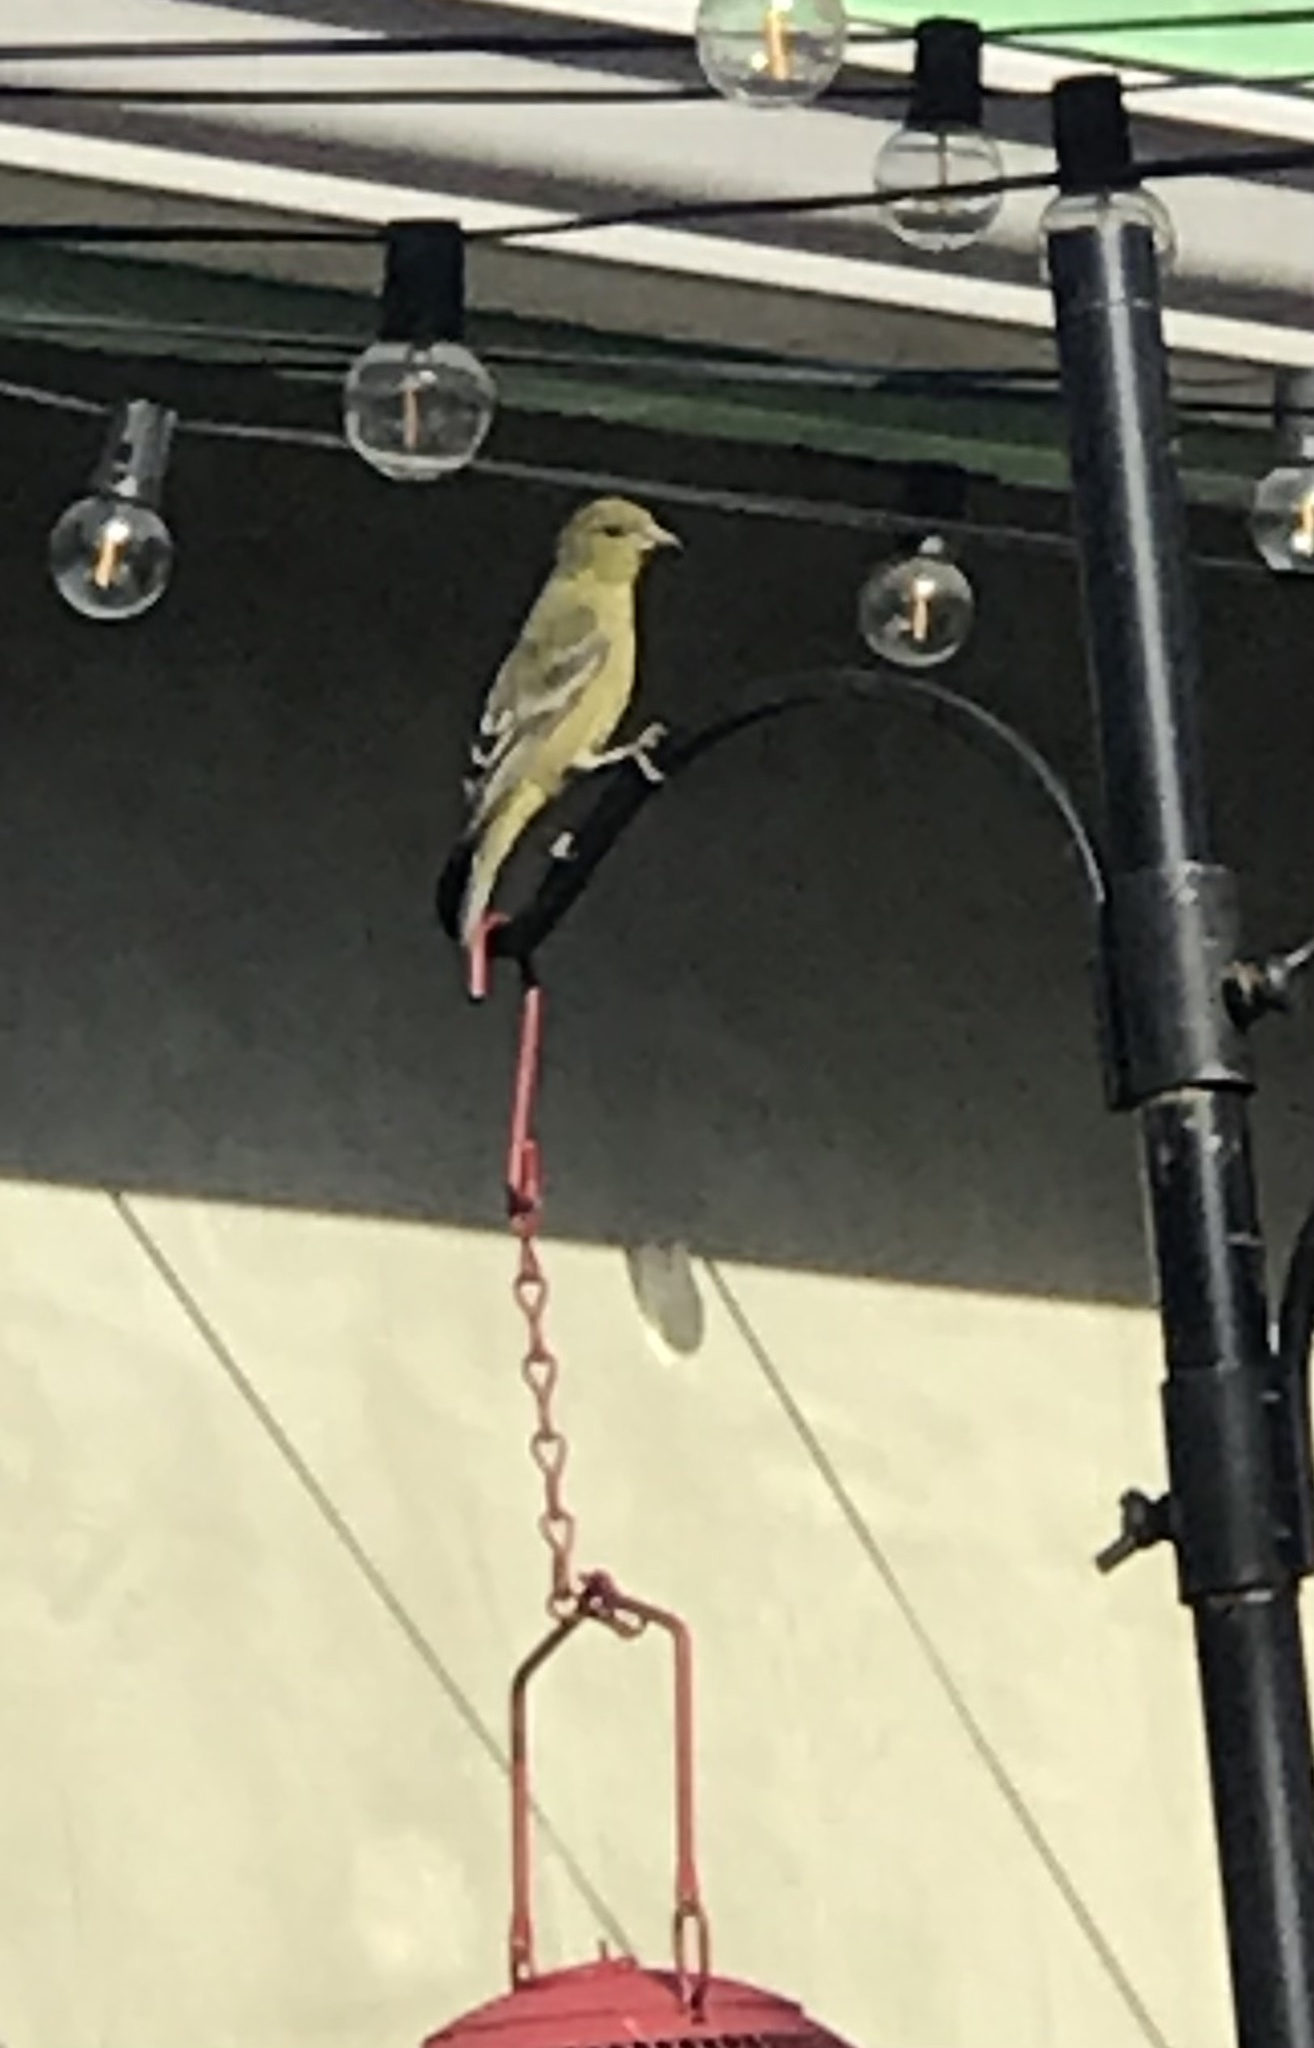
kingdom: Animalia
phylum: Chordata
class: Aves
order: Passeriformes
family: Fringillidae
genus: Spinus
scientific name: Spinus psaltria
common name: Lesser goldfinch
